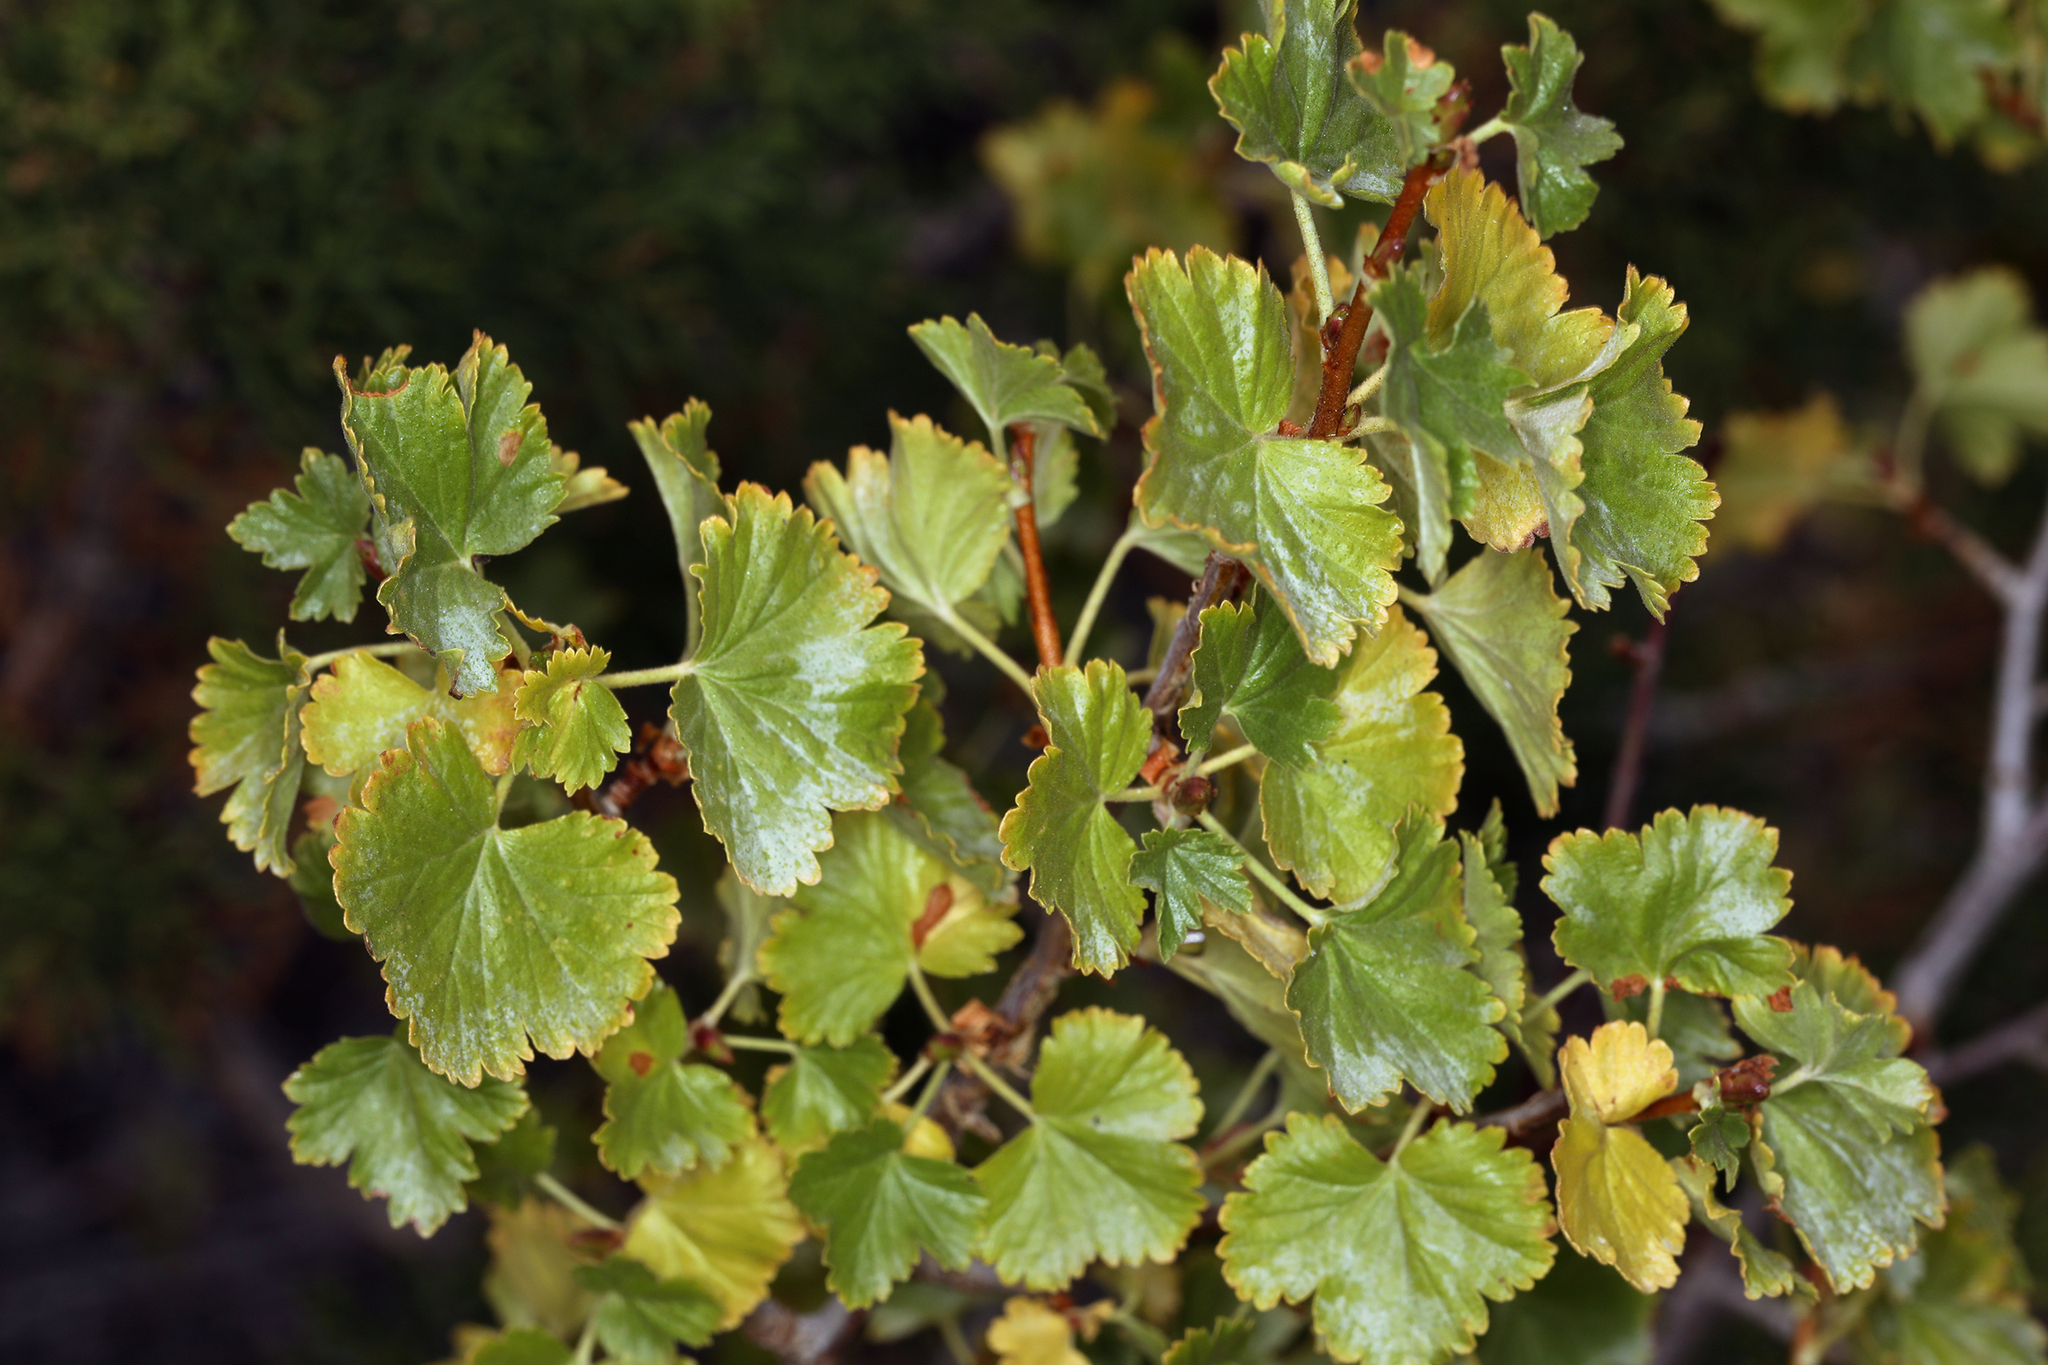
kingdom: Plantae
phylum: Tracheophyta
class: Magnoliopsida
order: Saxifragales
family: Grossulariaceae
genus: Ribes
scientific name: Ribes cereum
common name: Wax currant
